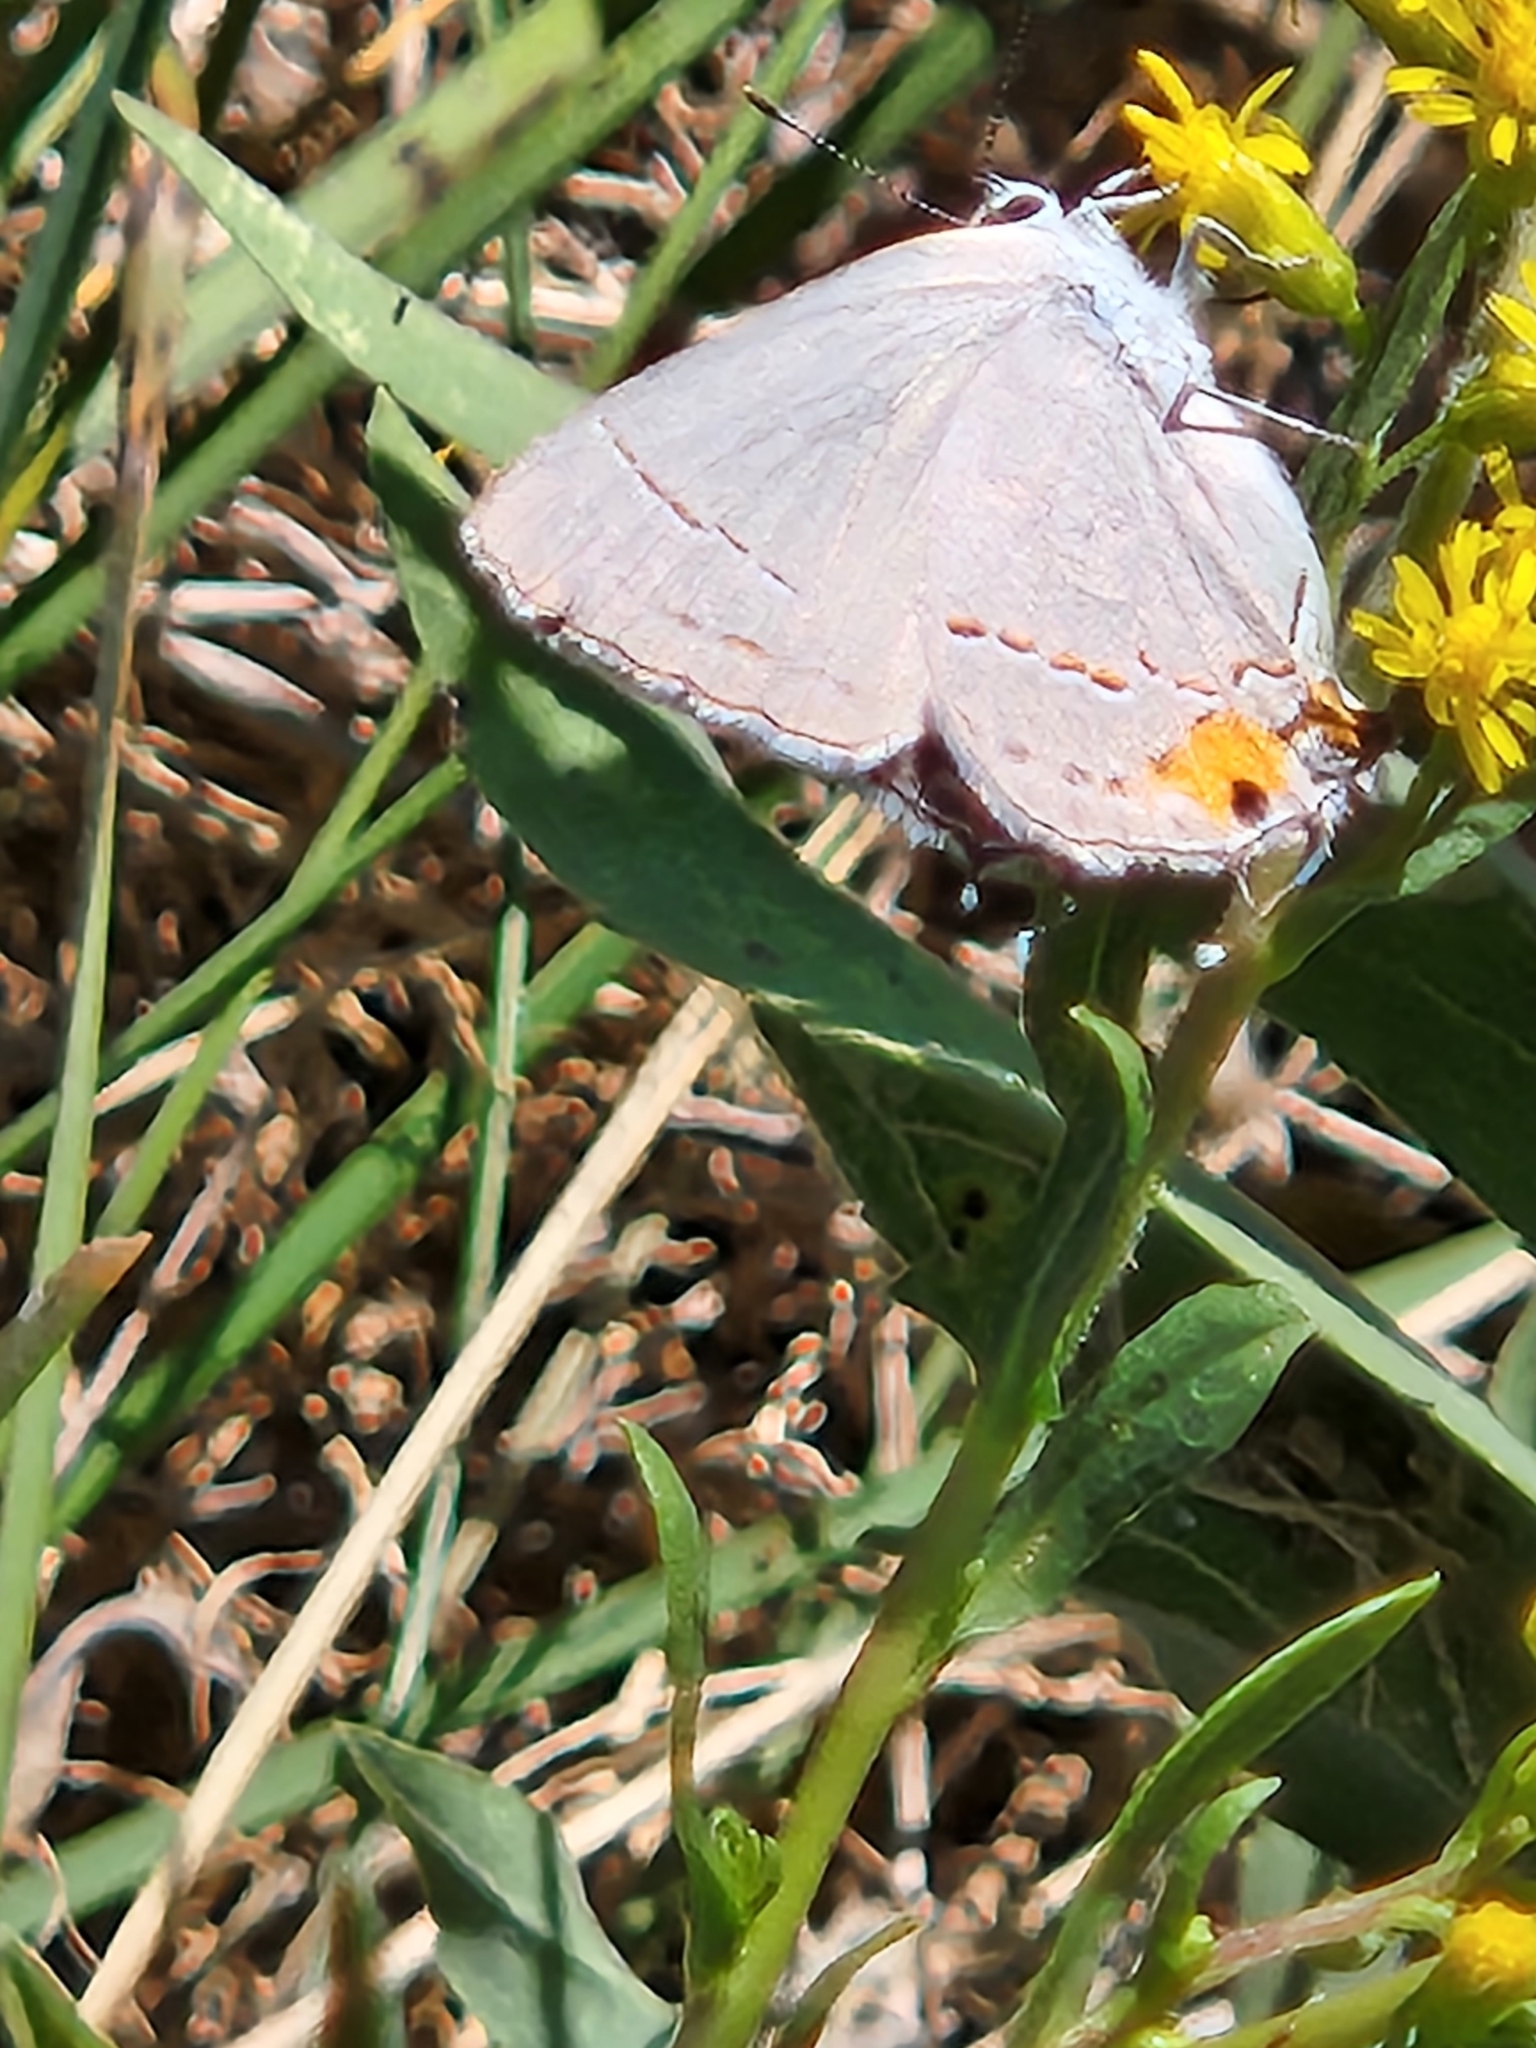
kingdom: Animalia
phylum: Arthropoda
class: Insecta
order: Lepidoptera
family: Lycaenidae
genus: Strymon
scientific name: Strymon melinus
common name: Gray hairstreak
